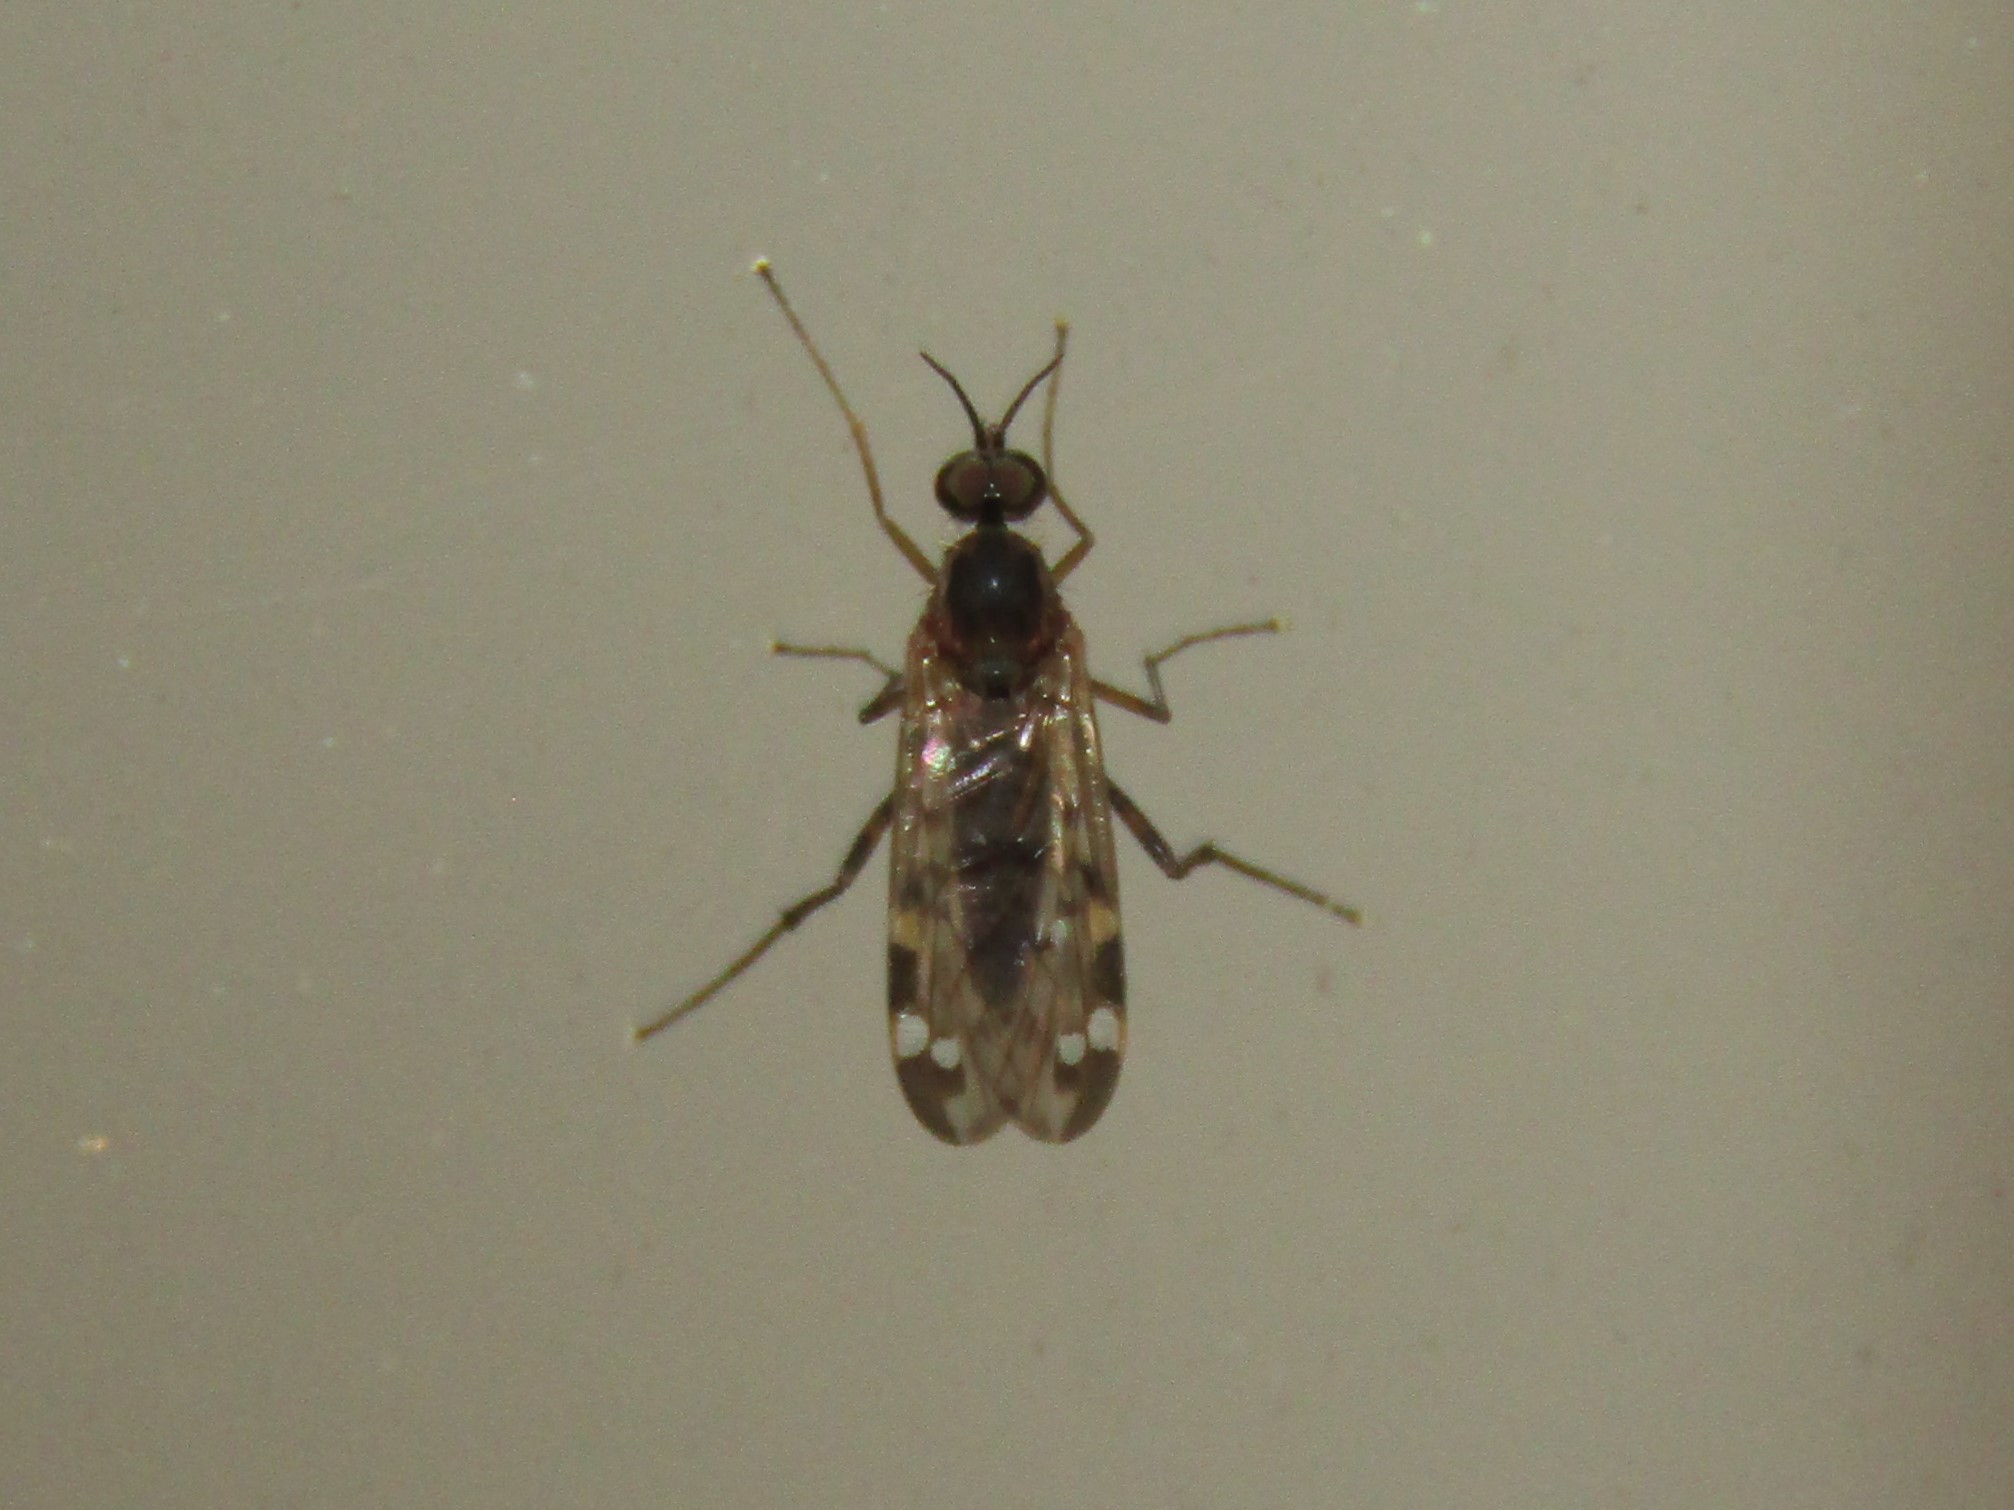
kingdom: Animalia
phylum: Arthropoda
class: Insecta
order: Diptera
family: Anisopodidae
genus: Sylvicola
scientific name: Sylvicola alternata
